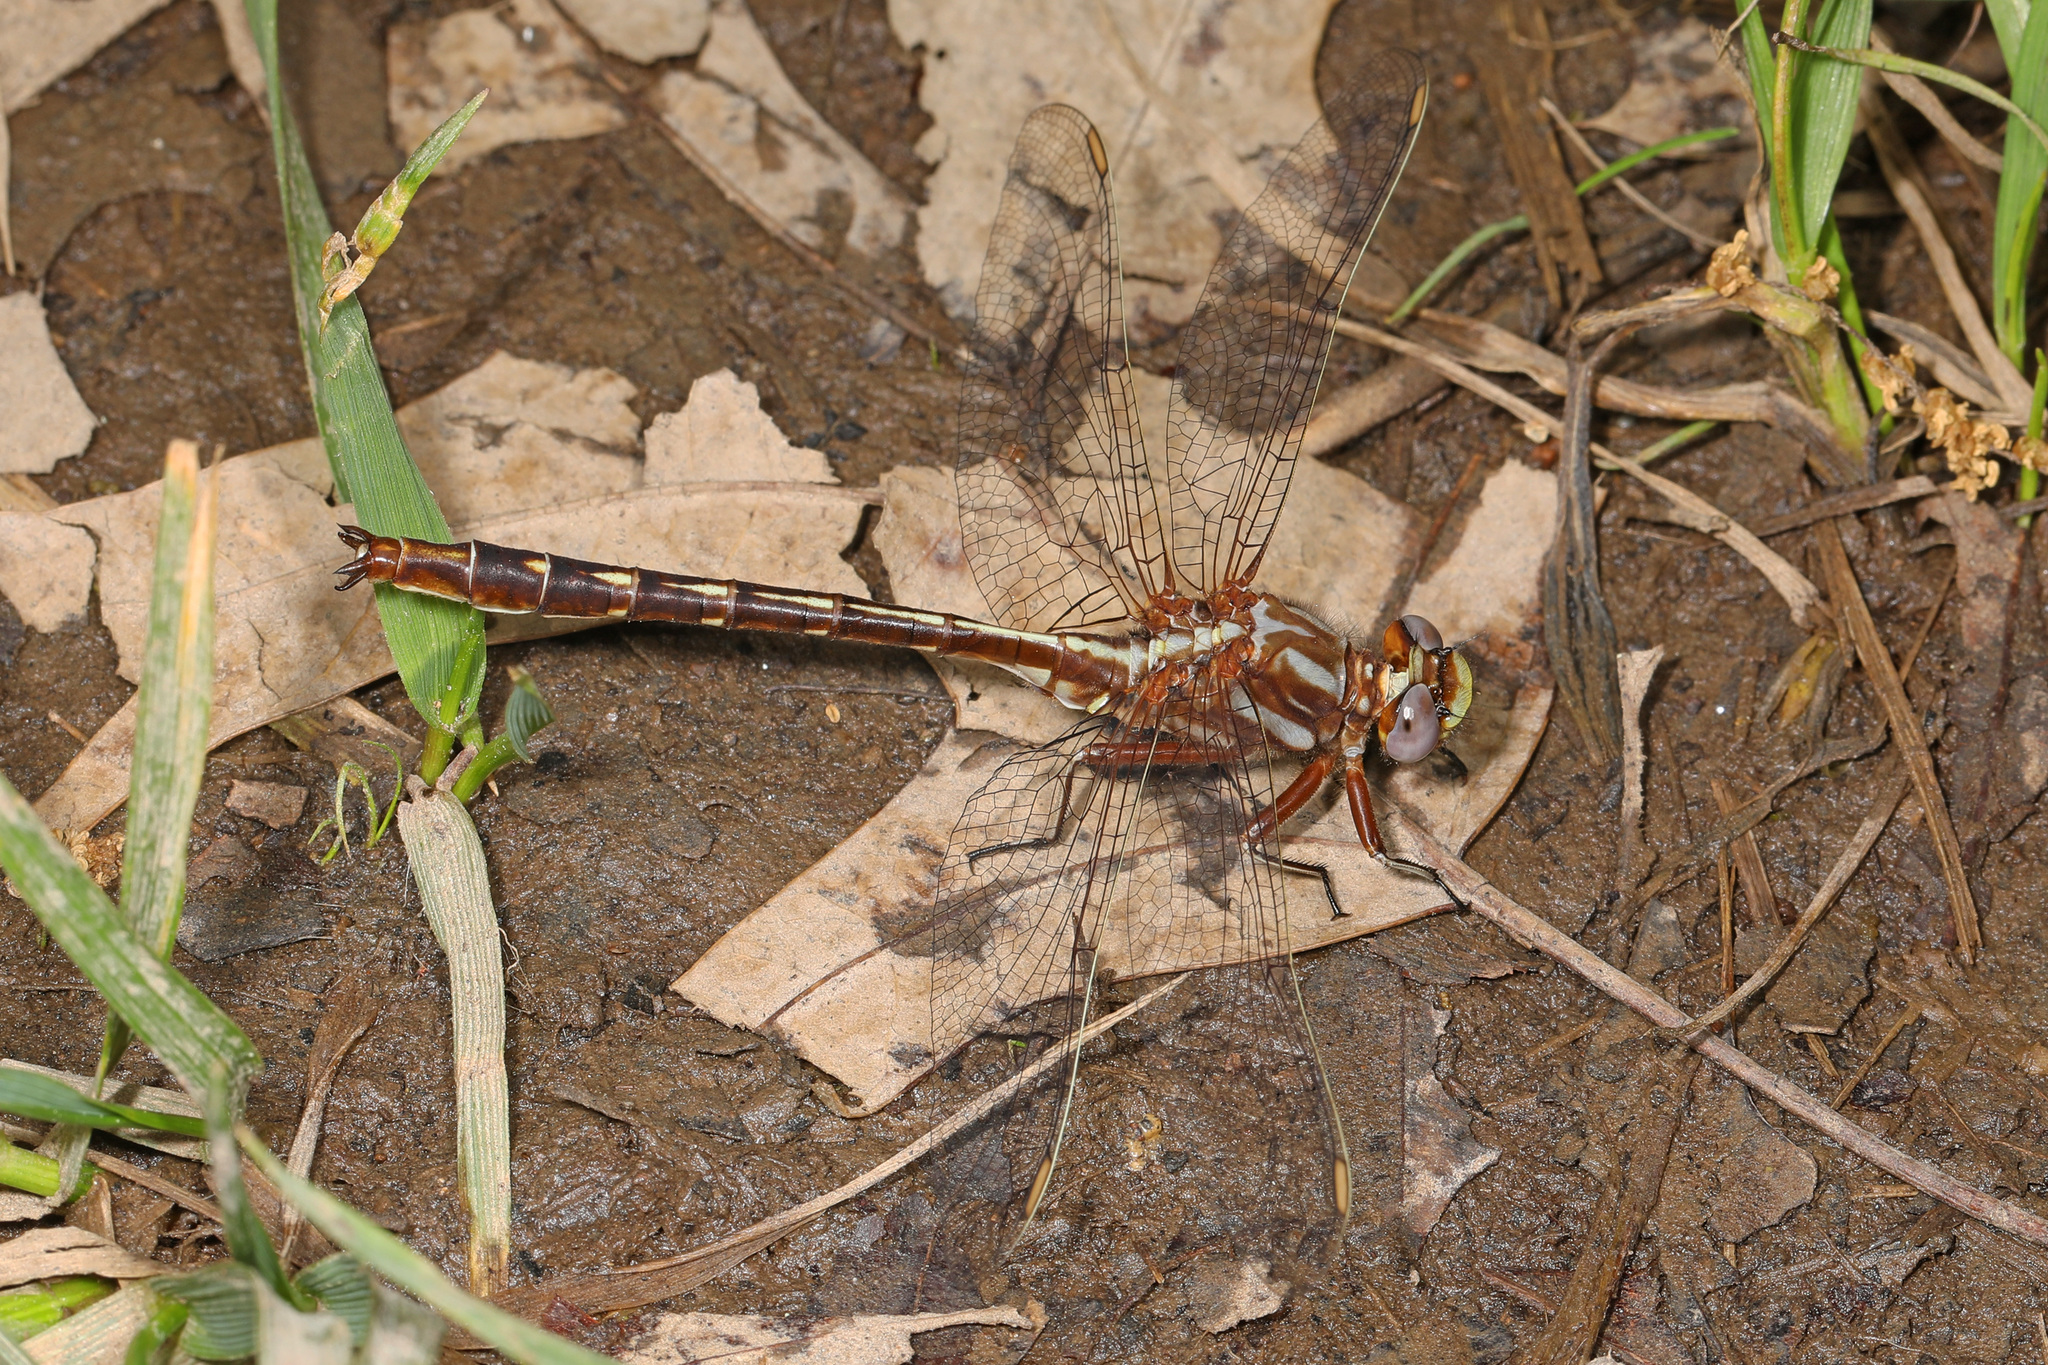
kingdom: Animalia
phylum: Arthropoda
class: Insecta
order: Odonata
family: Gomphidae
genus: Phanogomphus
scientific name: Phanogomphus lividus
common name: Ashy clubtail
